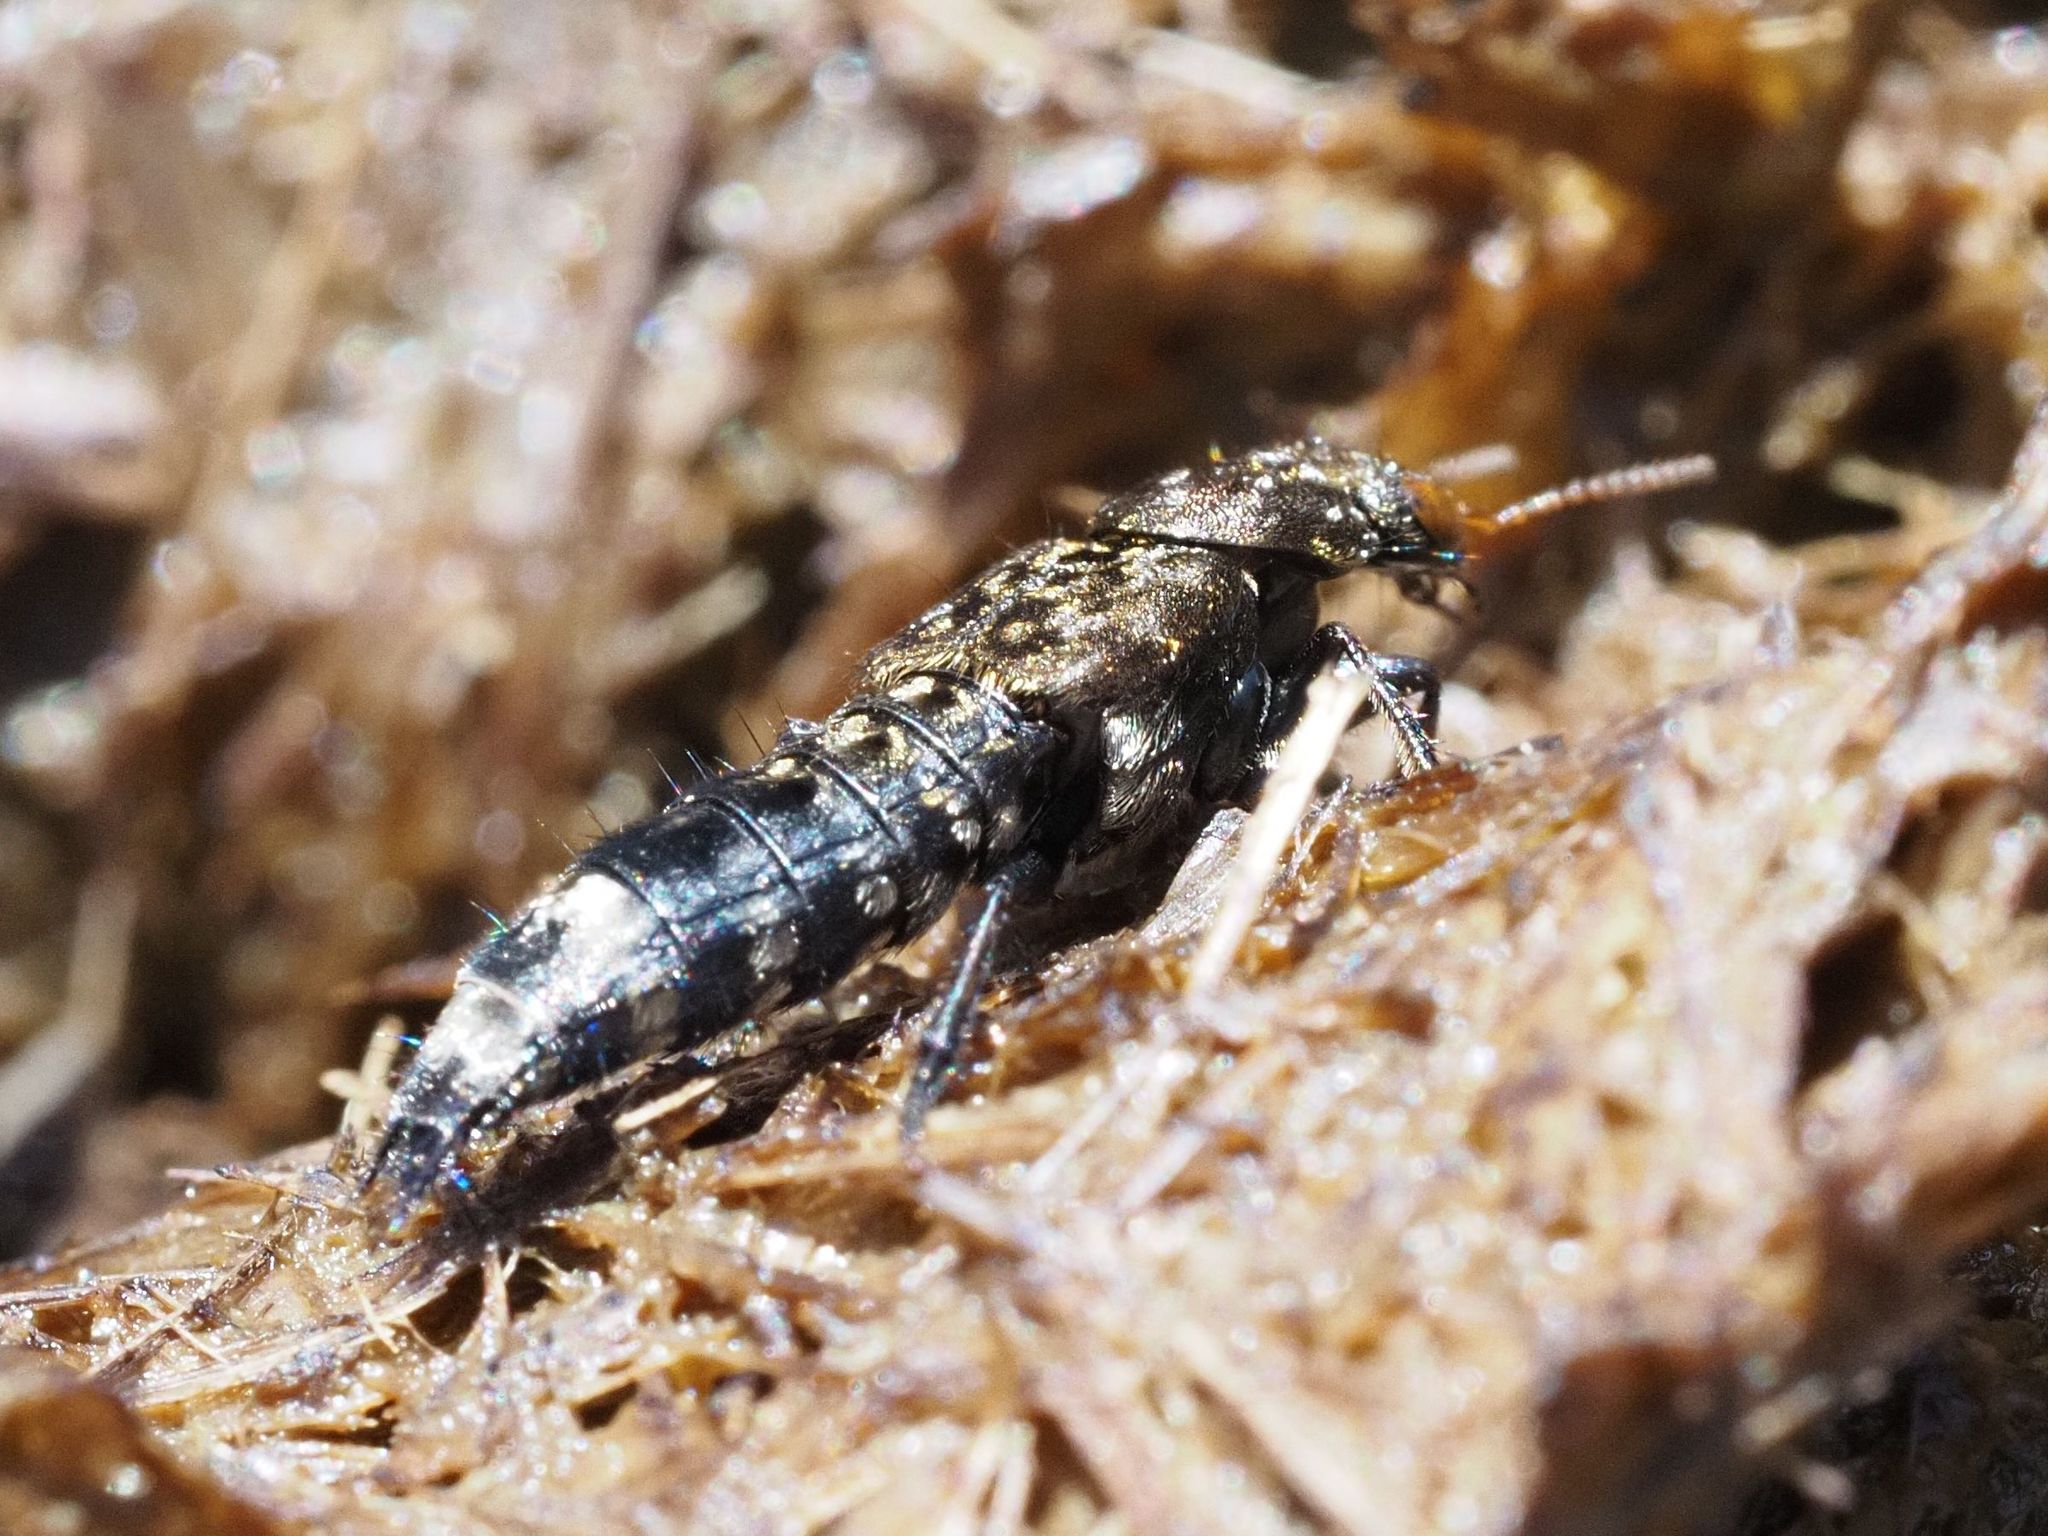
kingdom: Animalia
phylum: Arthropoda
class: Insecta
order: Coleoptera
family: Staphylinidae
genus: Ontholestes
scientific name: Ontholestes murinus
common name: Staph beetle
